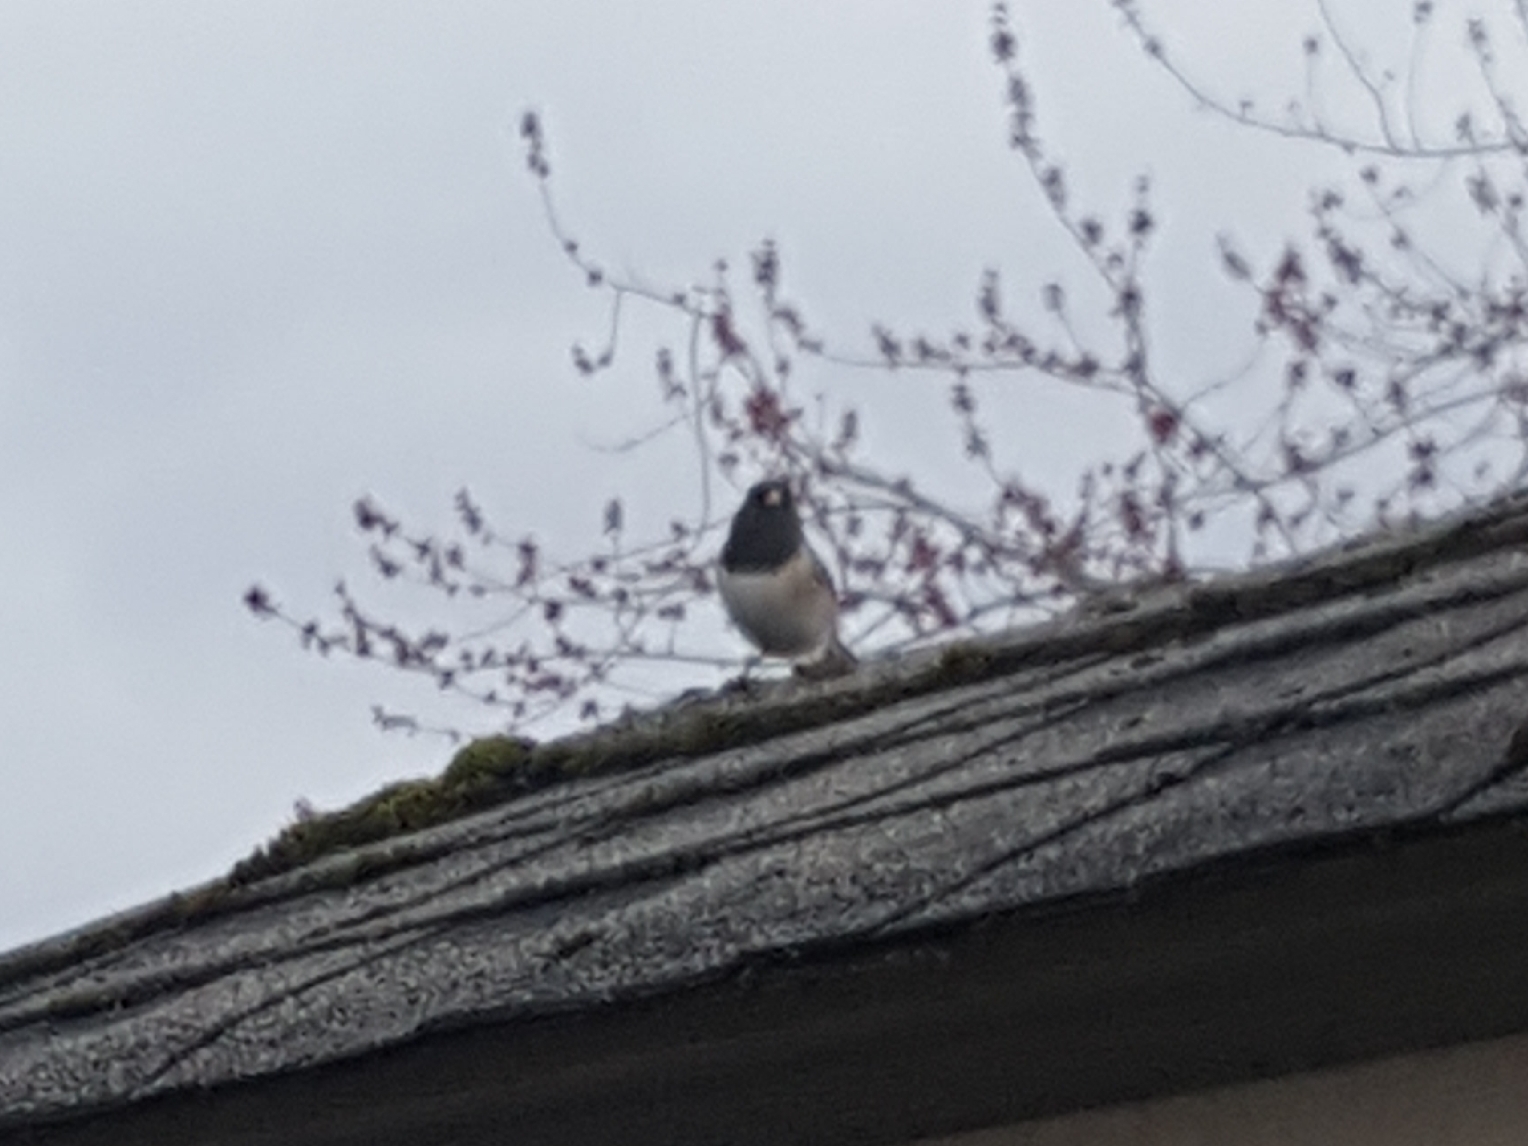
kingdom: Animalia
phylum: Chordata
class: Aves
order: Passeriformes
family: Passerellidae
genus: Junco
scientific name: Junco hyemalis
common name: Dark-eyed junco
